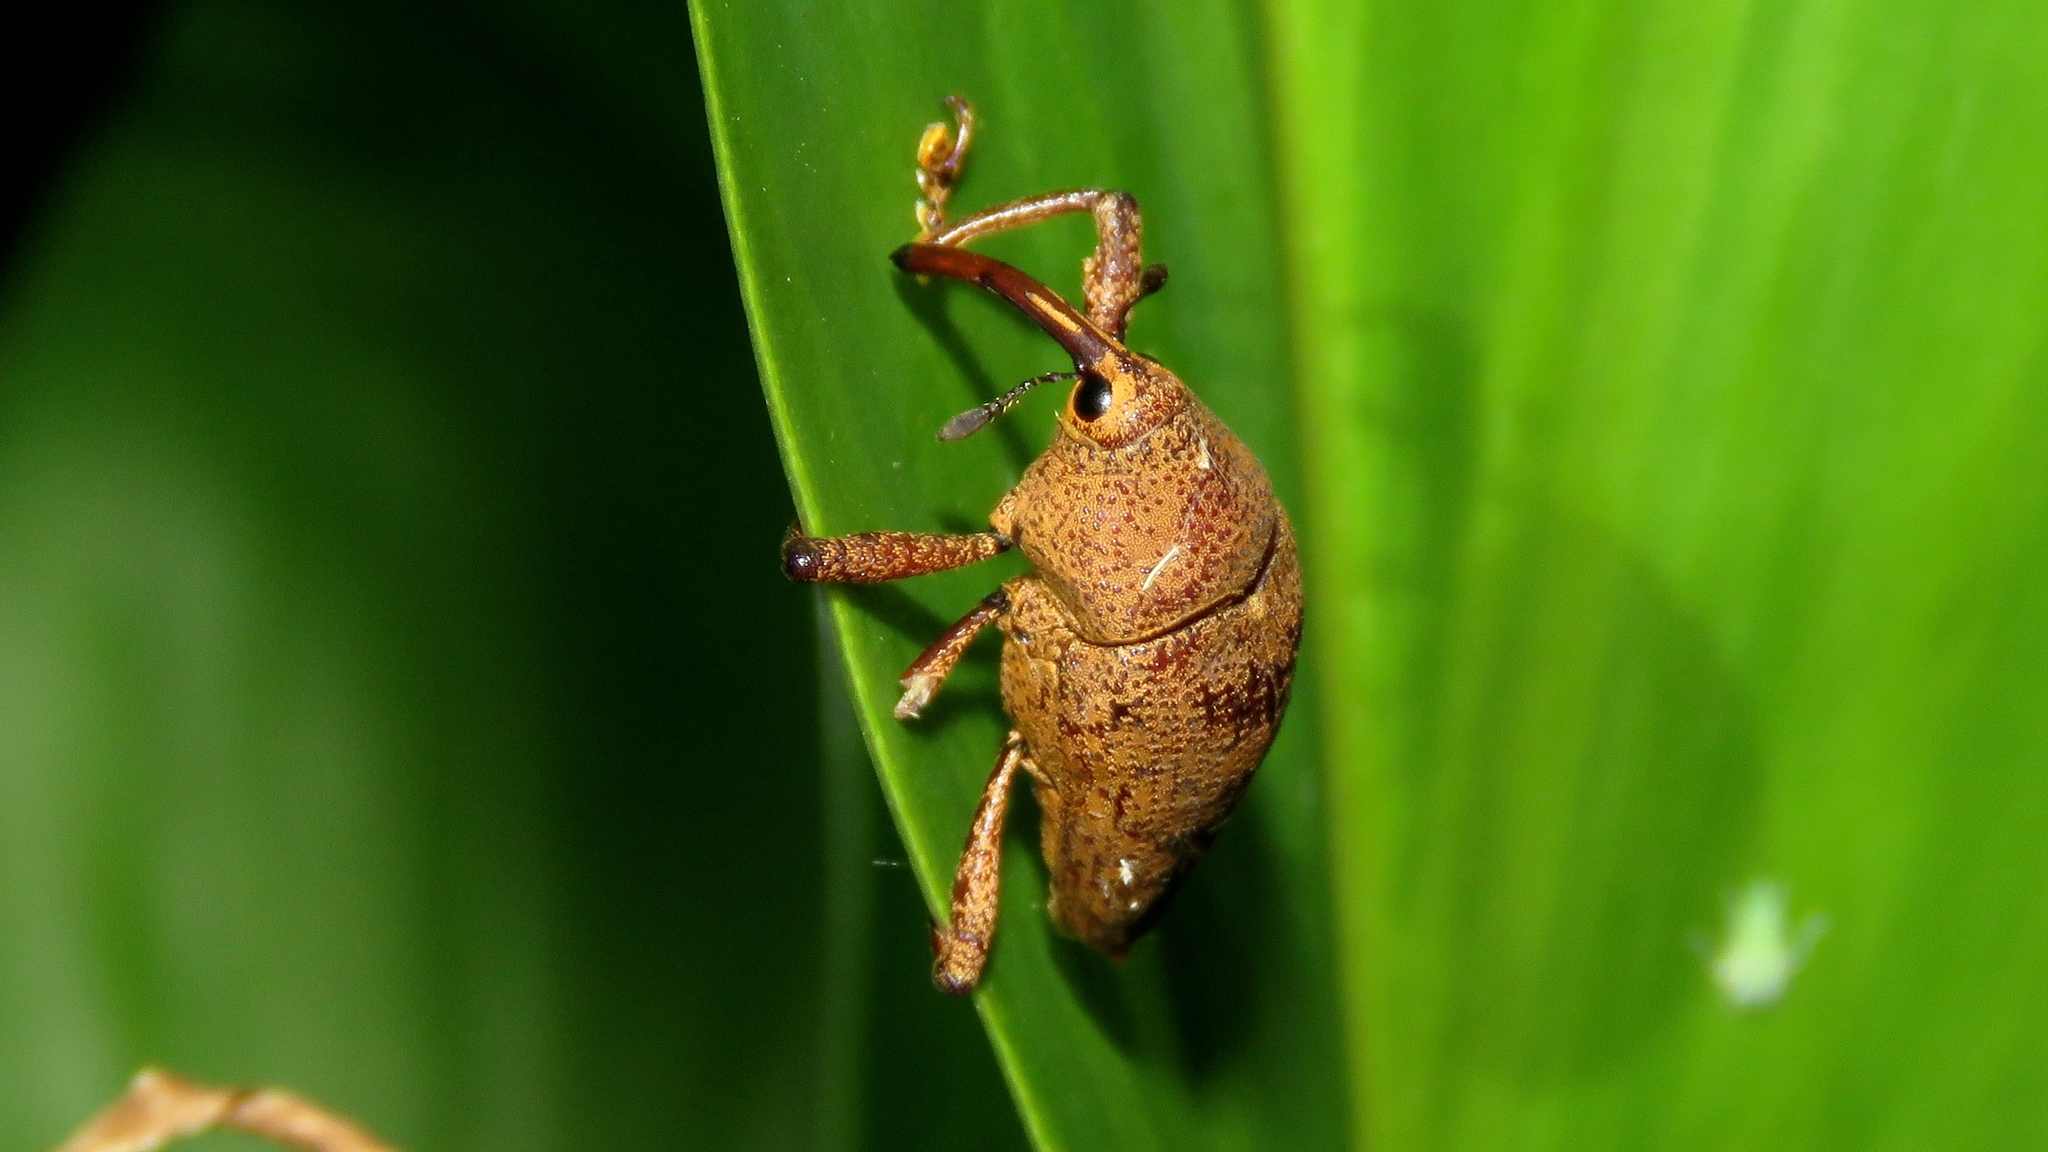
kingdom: Animalia
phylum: Arthropoda
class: Insecta
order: Coleoptera
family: Curculionidae
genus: Cholus
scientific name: Cholus subcaudatus
